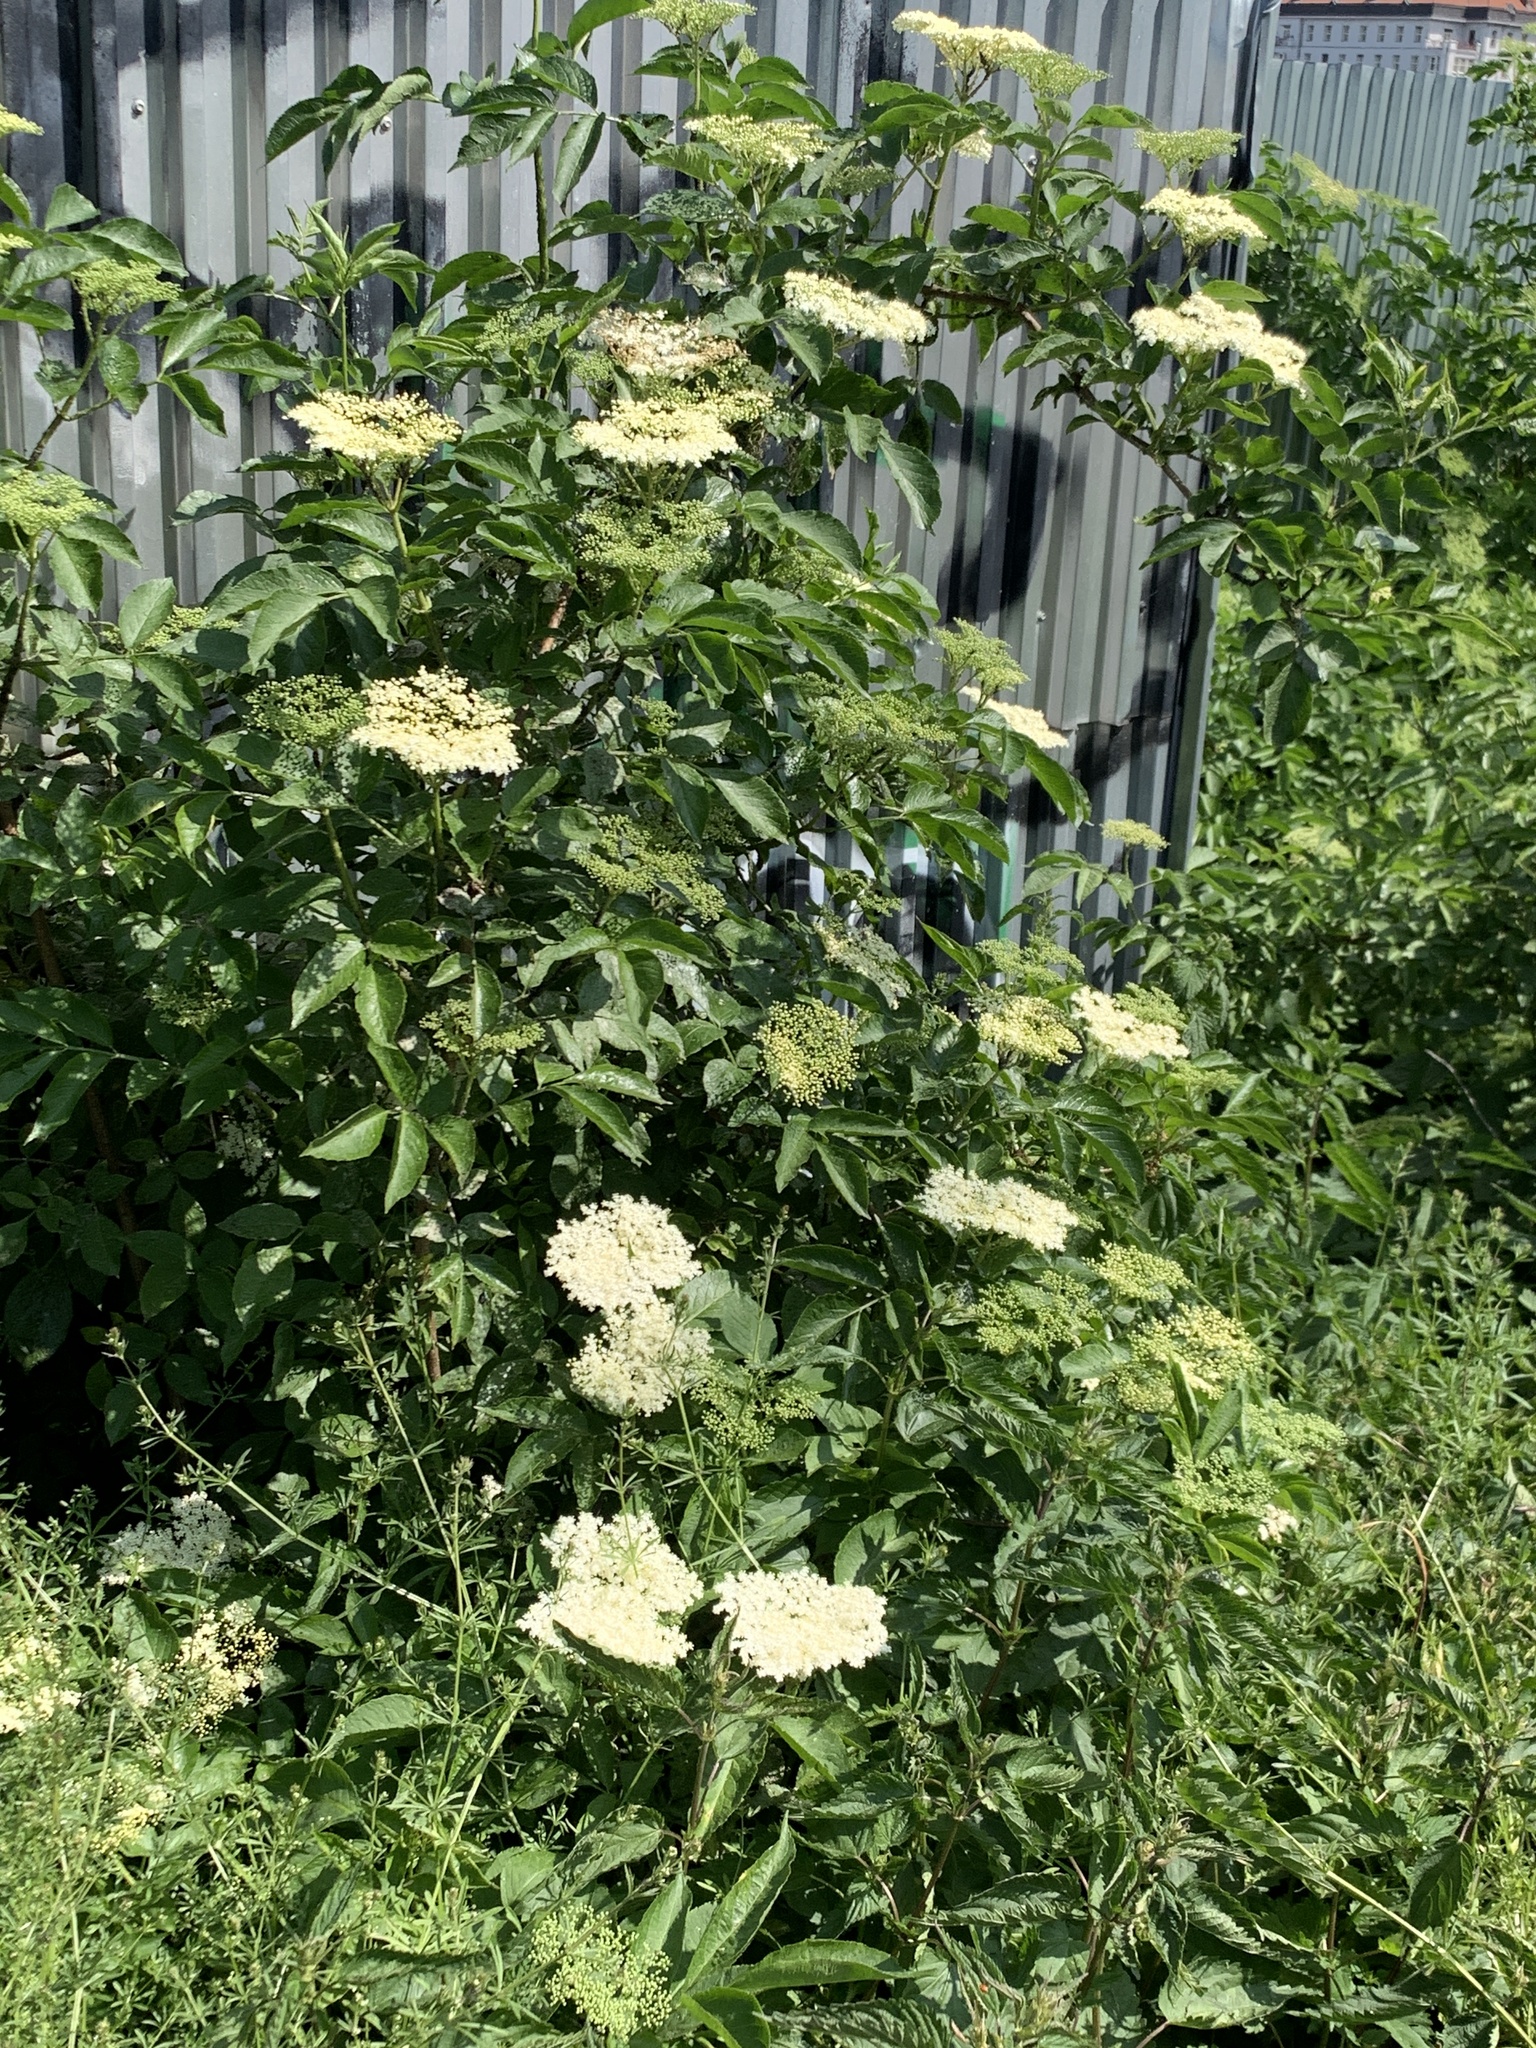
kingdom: Plantae
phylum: Tracheophyta
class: Magnoliopsida
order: Dipsacales
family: Viburnaceae
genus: Sambucus
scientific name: Sambucus nigra
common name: Elder
